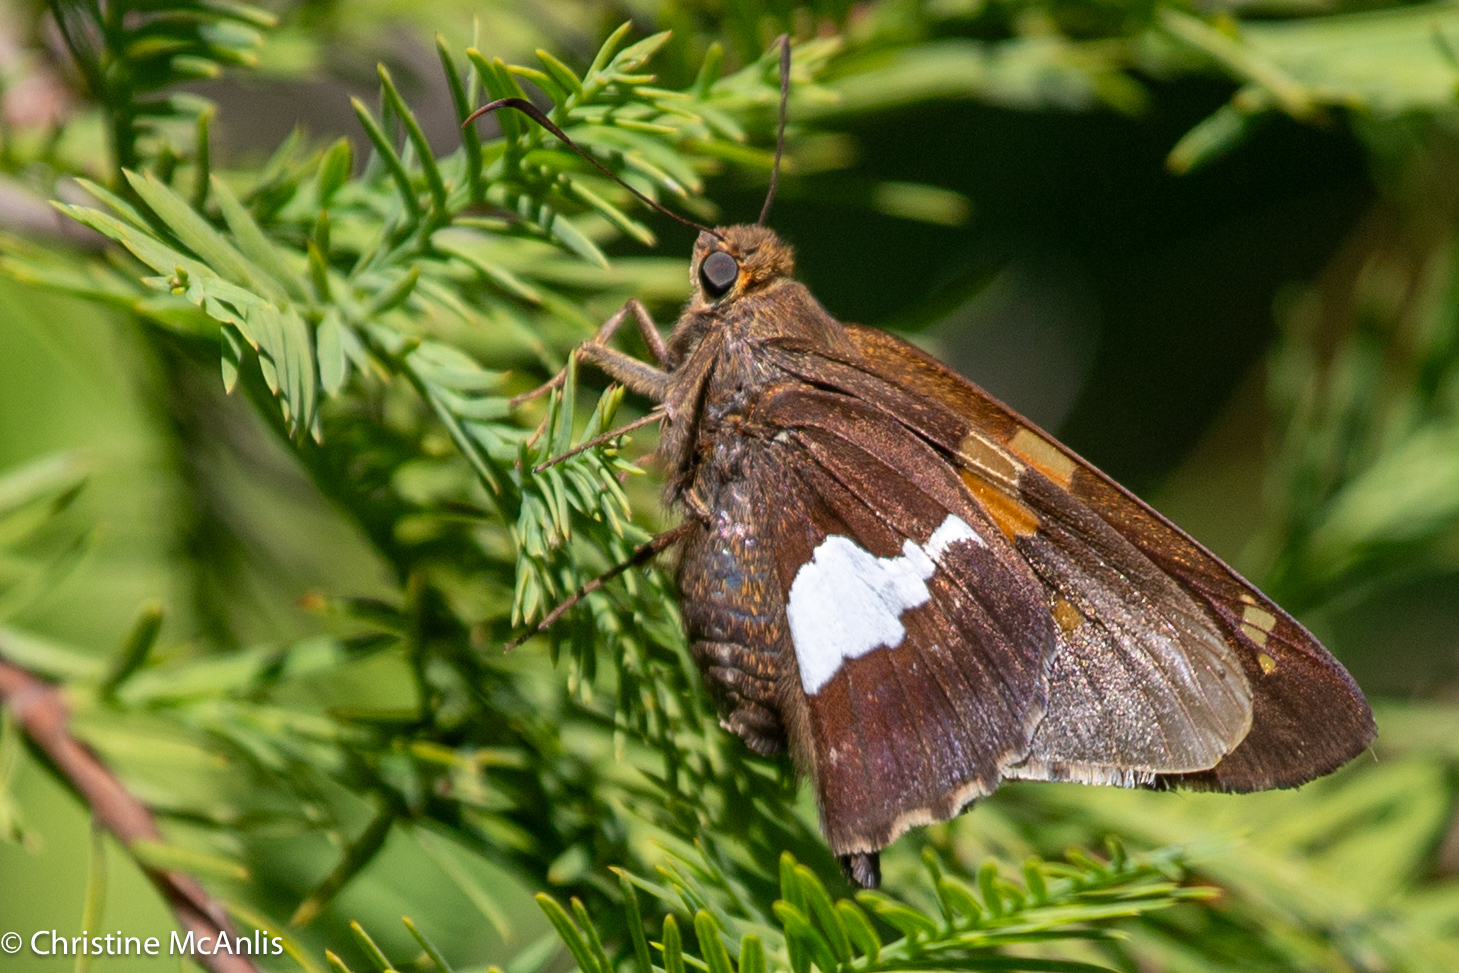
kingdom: Animalia
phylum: Arthropoda
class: Insecta
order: Lepidoptera
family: Hesperiidae
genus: Epargyreus
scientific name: Epargyreus clarus
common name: Silver-spotted skipper
